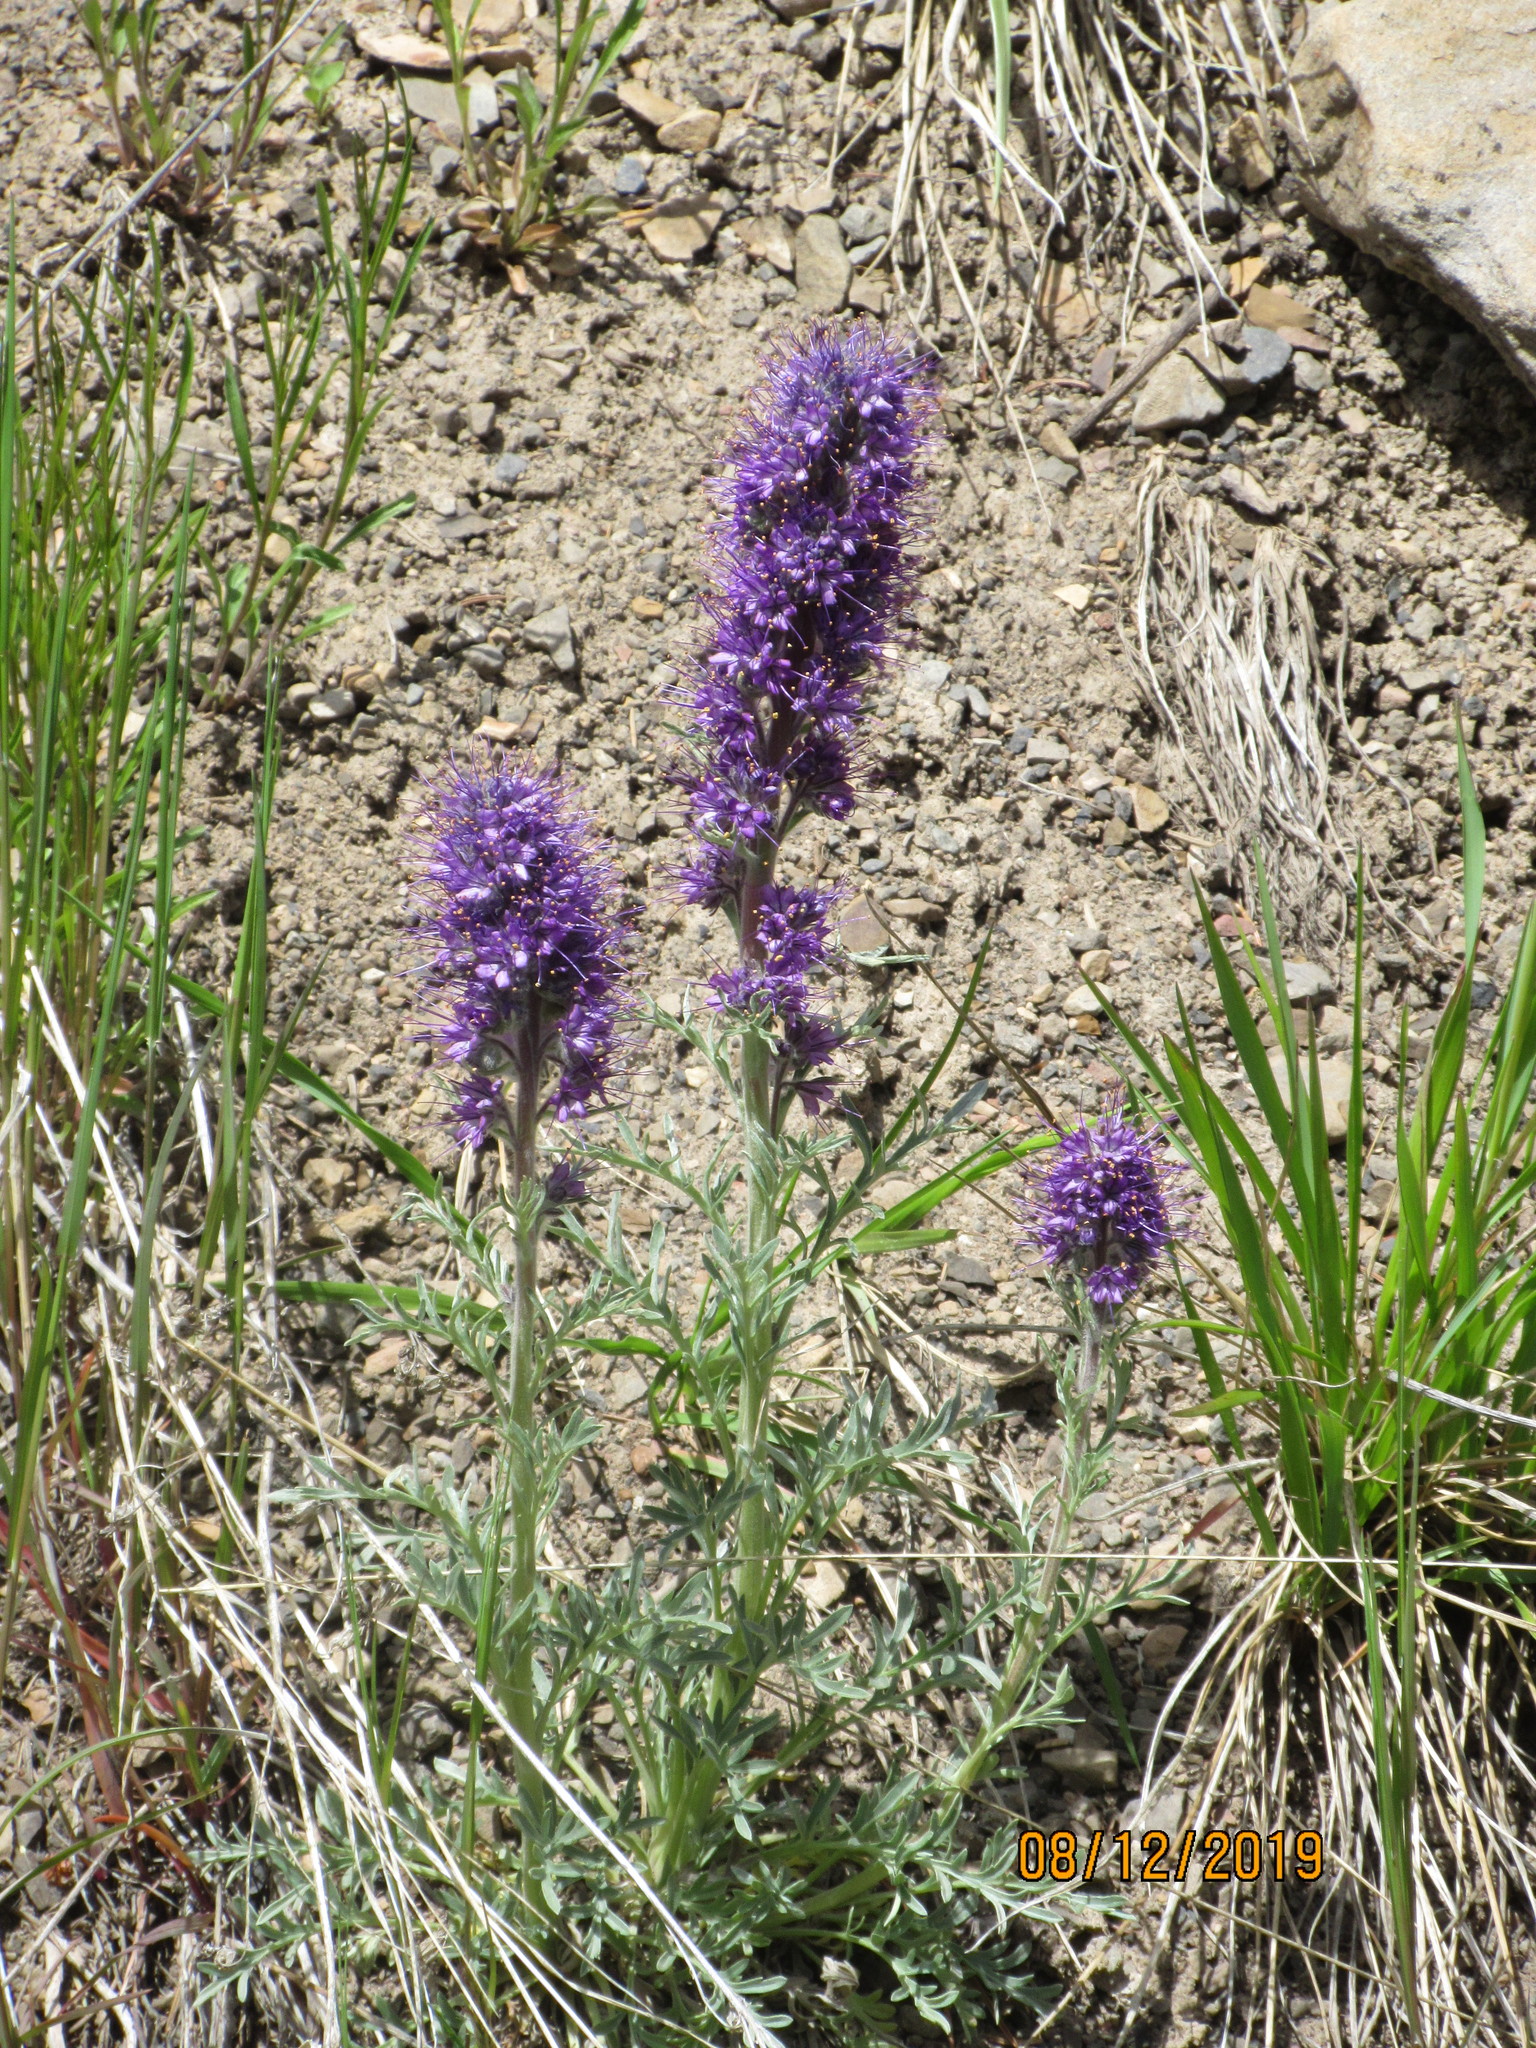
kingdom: Plantae
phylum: Tracheophyta
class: Magnoliopsida
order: Boraginales
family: Hydrophyllaceae
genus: Phacelia
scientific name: Phacelia sericea
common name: Silky phacelia
